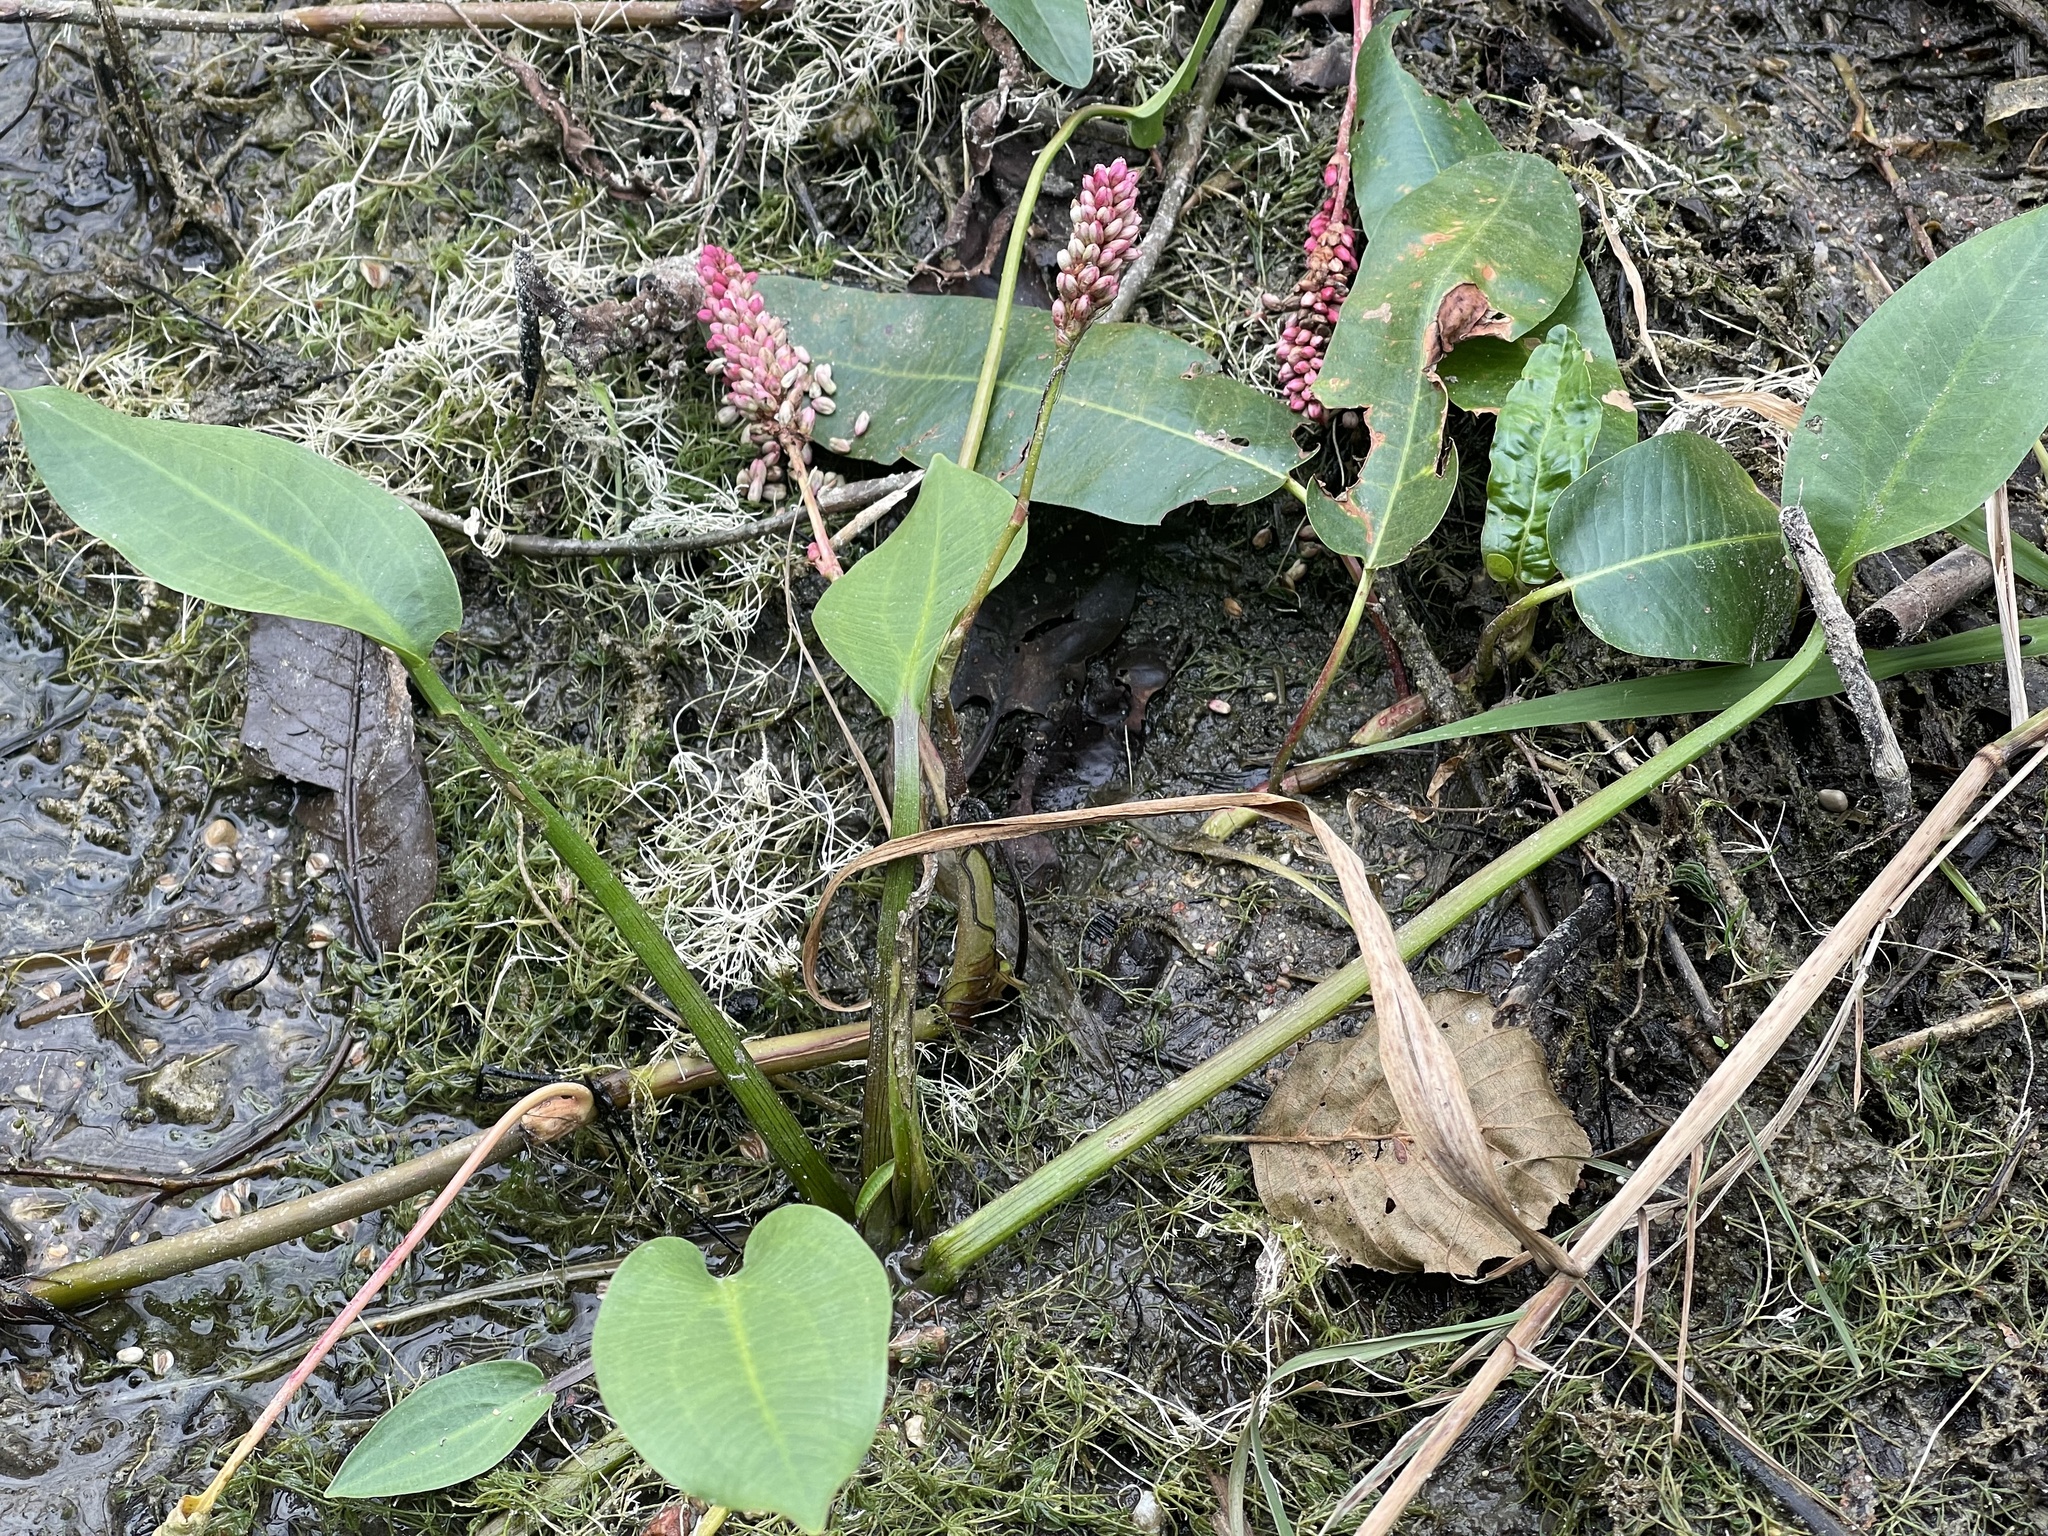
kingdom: Plantae
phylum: Tracheophyta
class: Magnoliopsida
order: Caryophyllales
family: Polygonaceae
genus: Persicaria
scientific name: Persicaria amphibia
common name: Amphibious bistort
